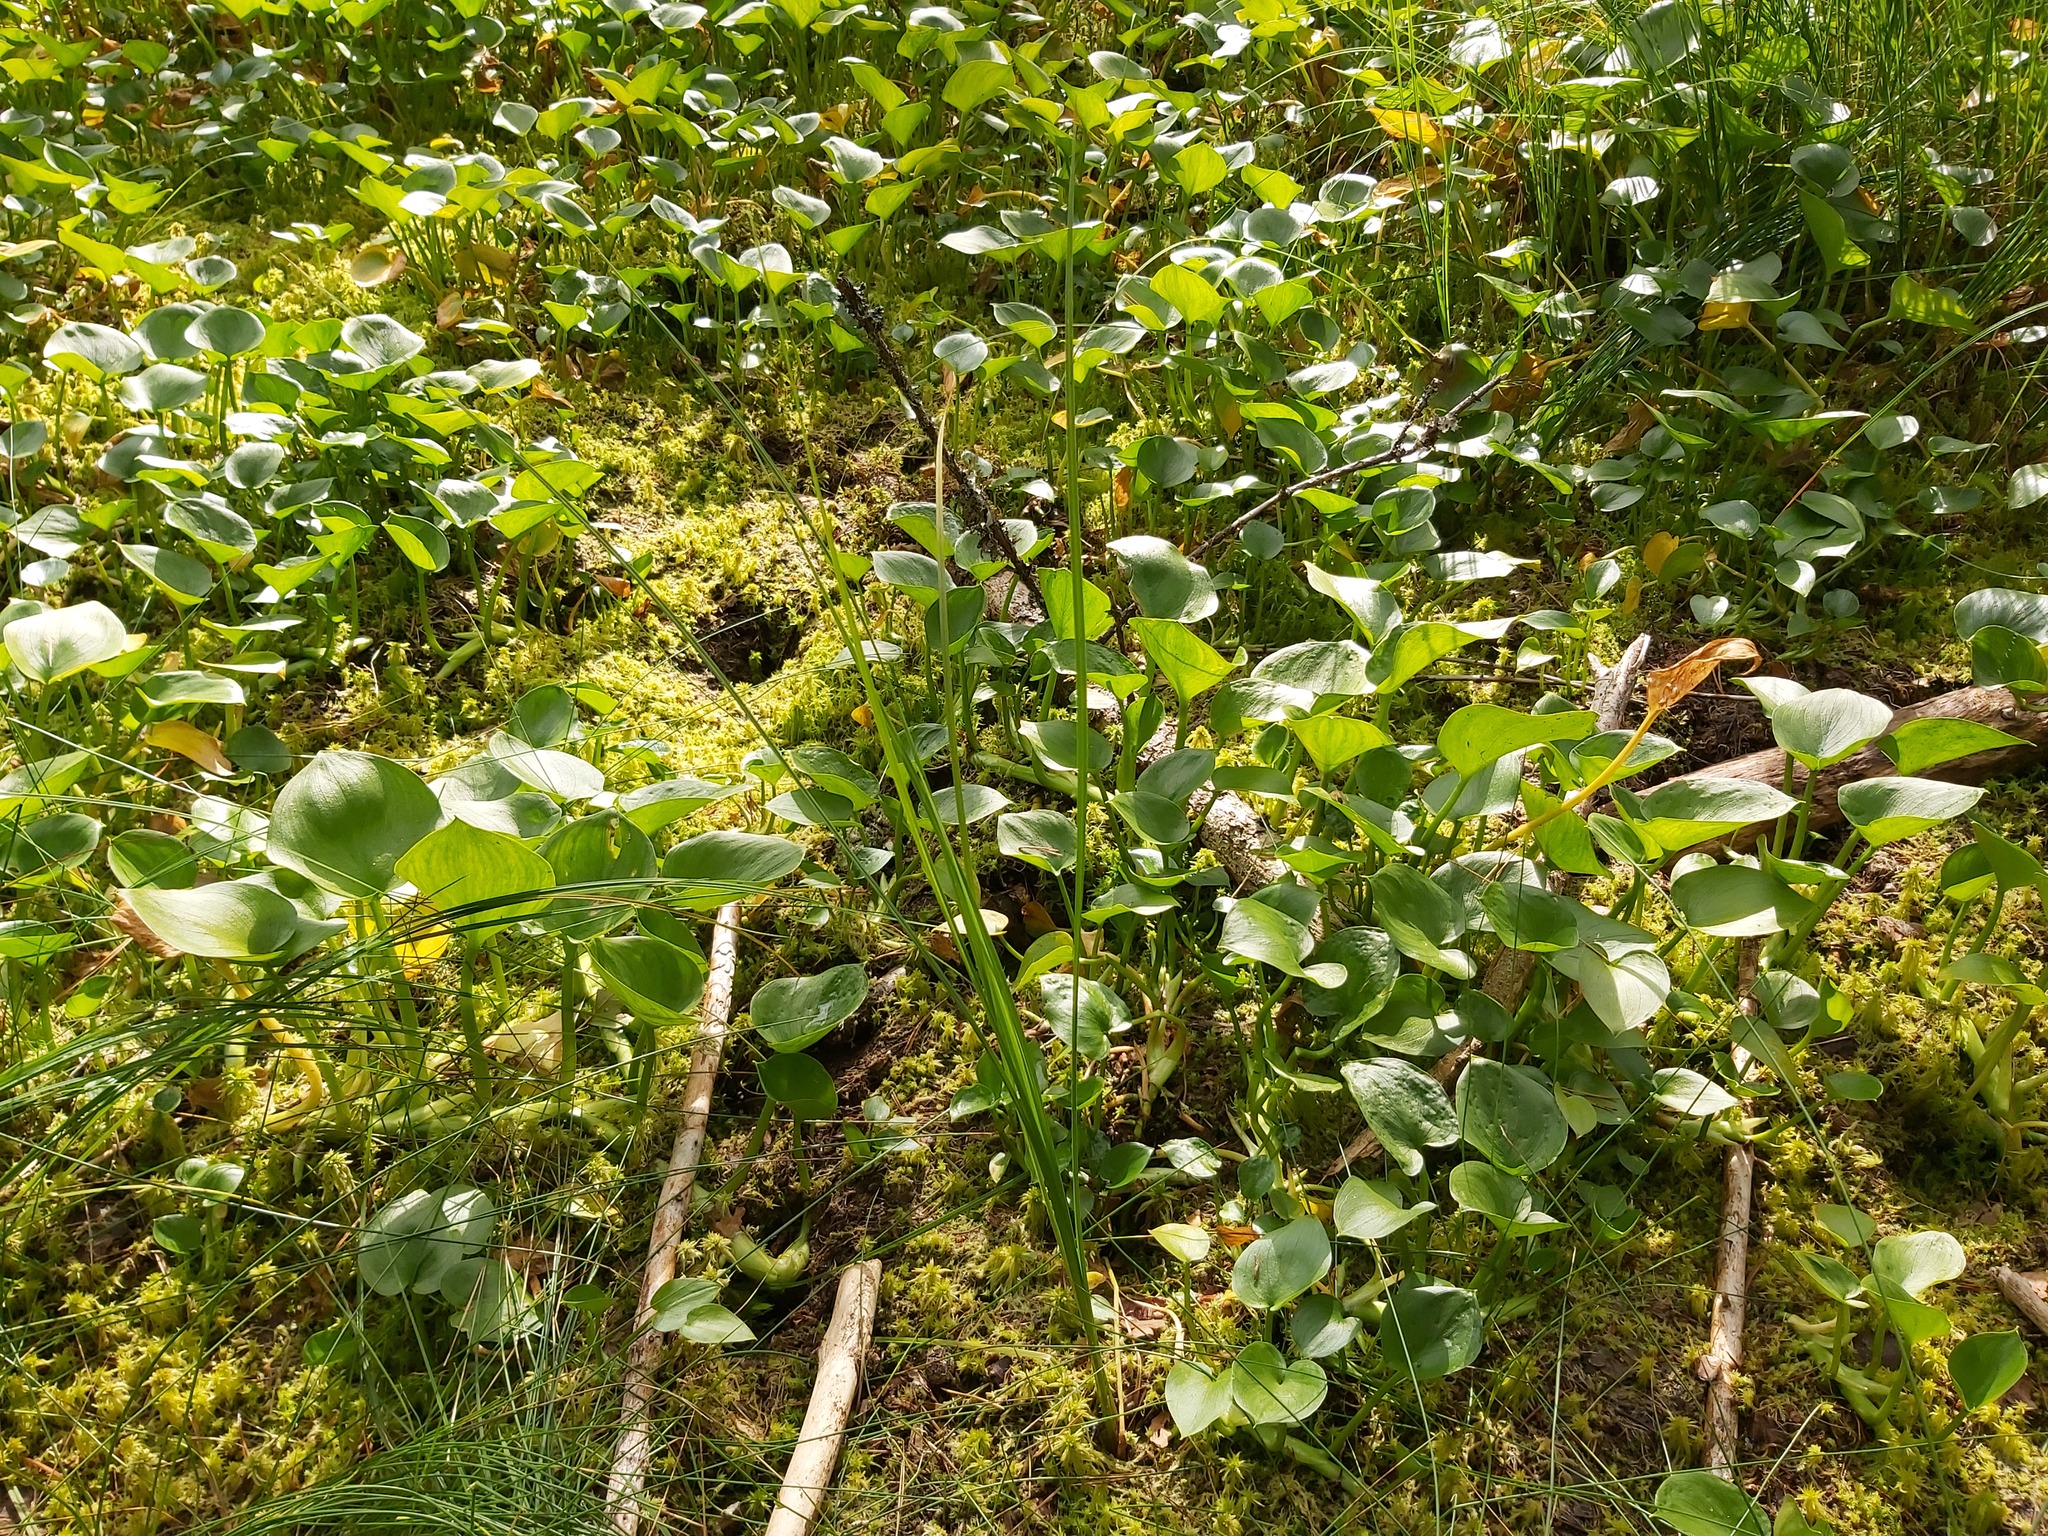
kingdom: Plantae
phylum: Tracheophyta
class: Liliopsida
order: Alismatales
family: Araceae
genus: Calla
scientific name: Calla palustris
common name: Bog arum
